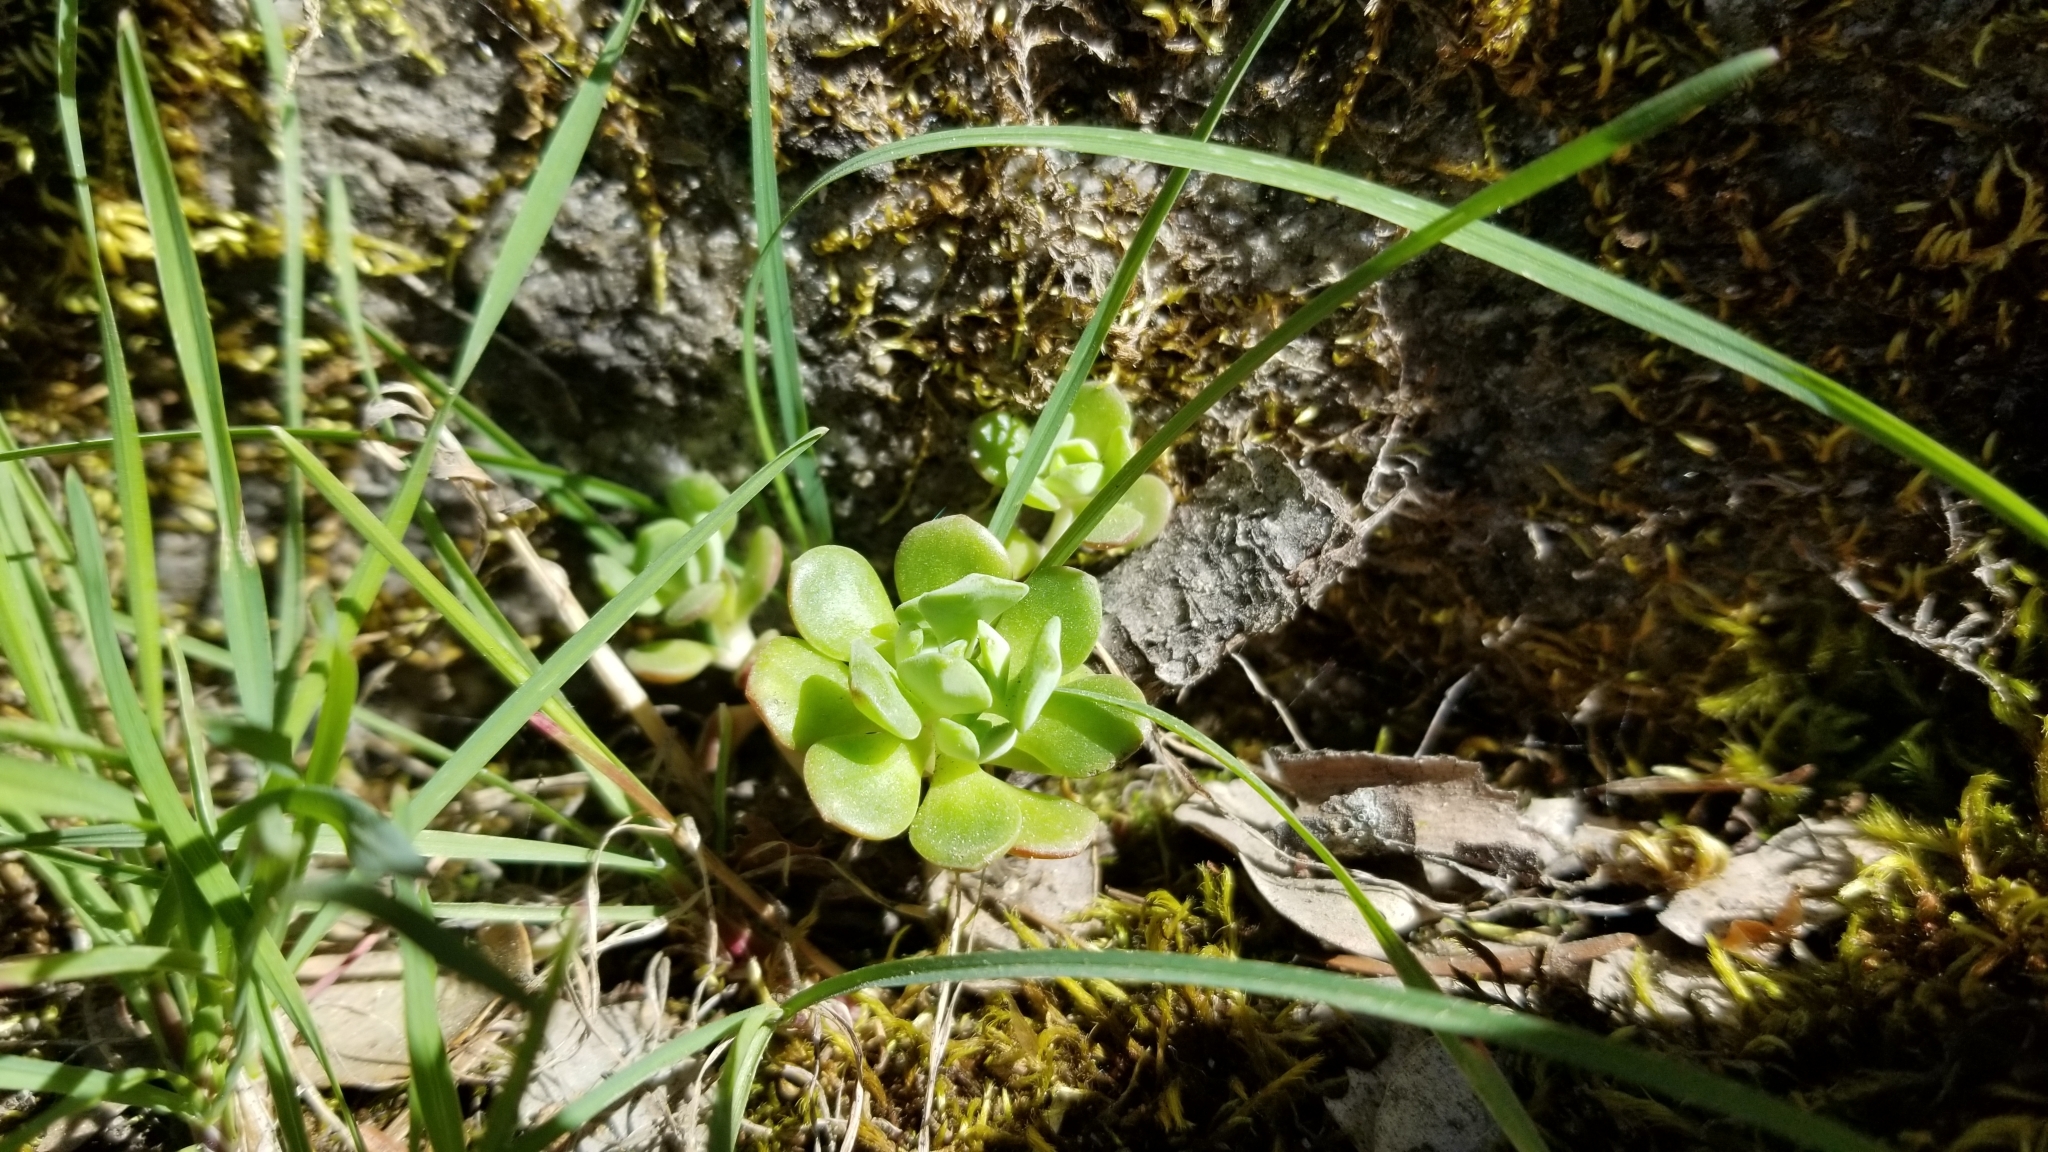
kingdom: Plantae
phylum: Tracheophyta
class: Magnoliopsida
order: Saxifragales
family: Crassulaceae
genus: Sedum
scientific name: Sedum spathulifolium
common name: Colorado stonecrop
